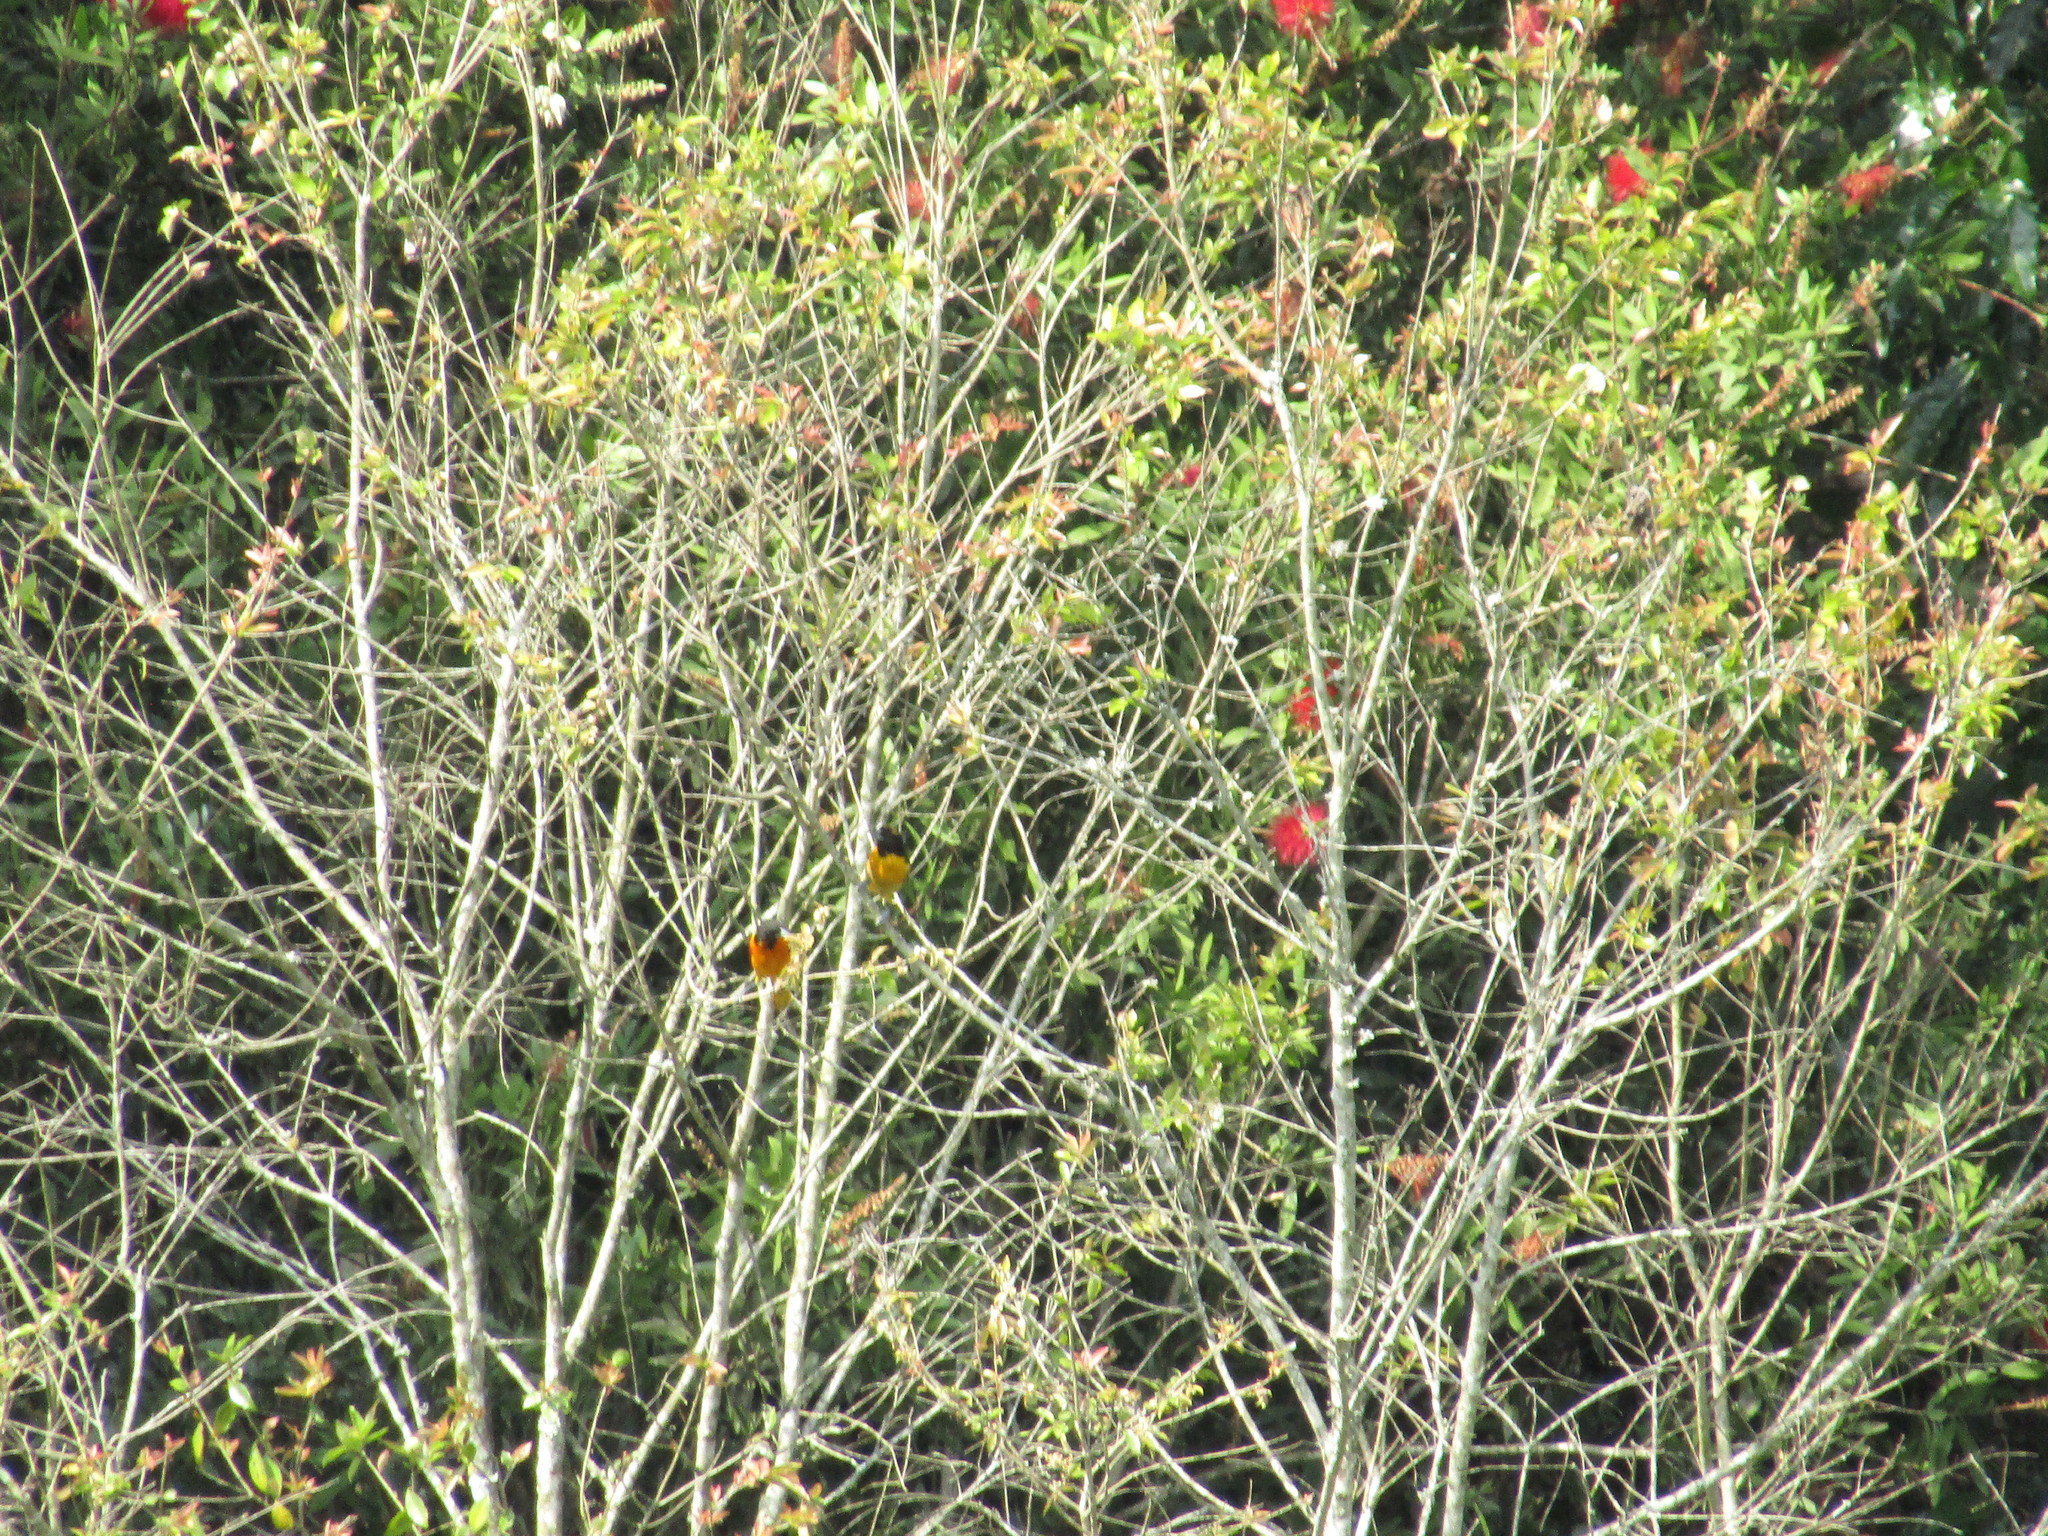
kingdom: Animalia
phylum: Chordata
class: Aves
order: Passeriformes
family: Icteridae
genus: Icterus
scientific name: Icterus galbula
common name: Baltimore oriole
